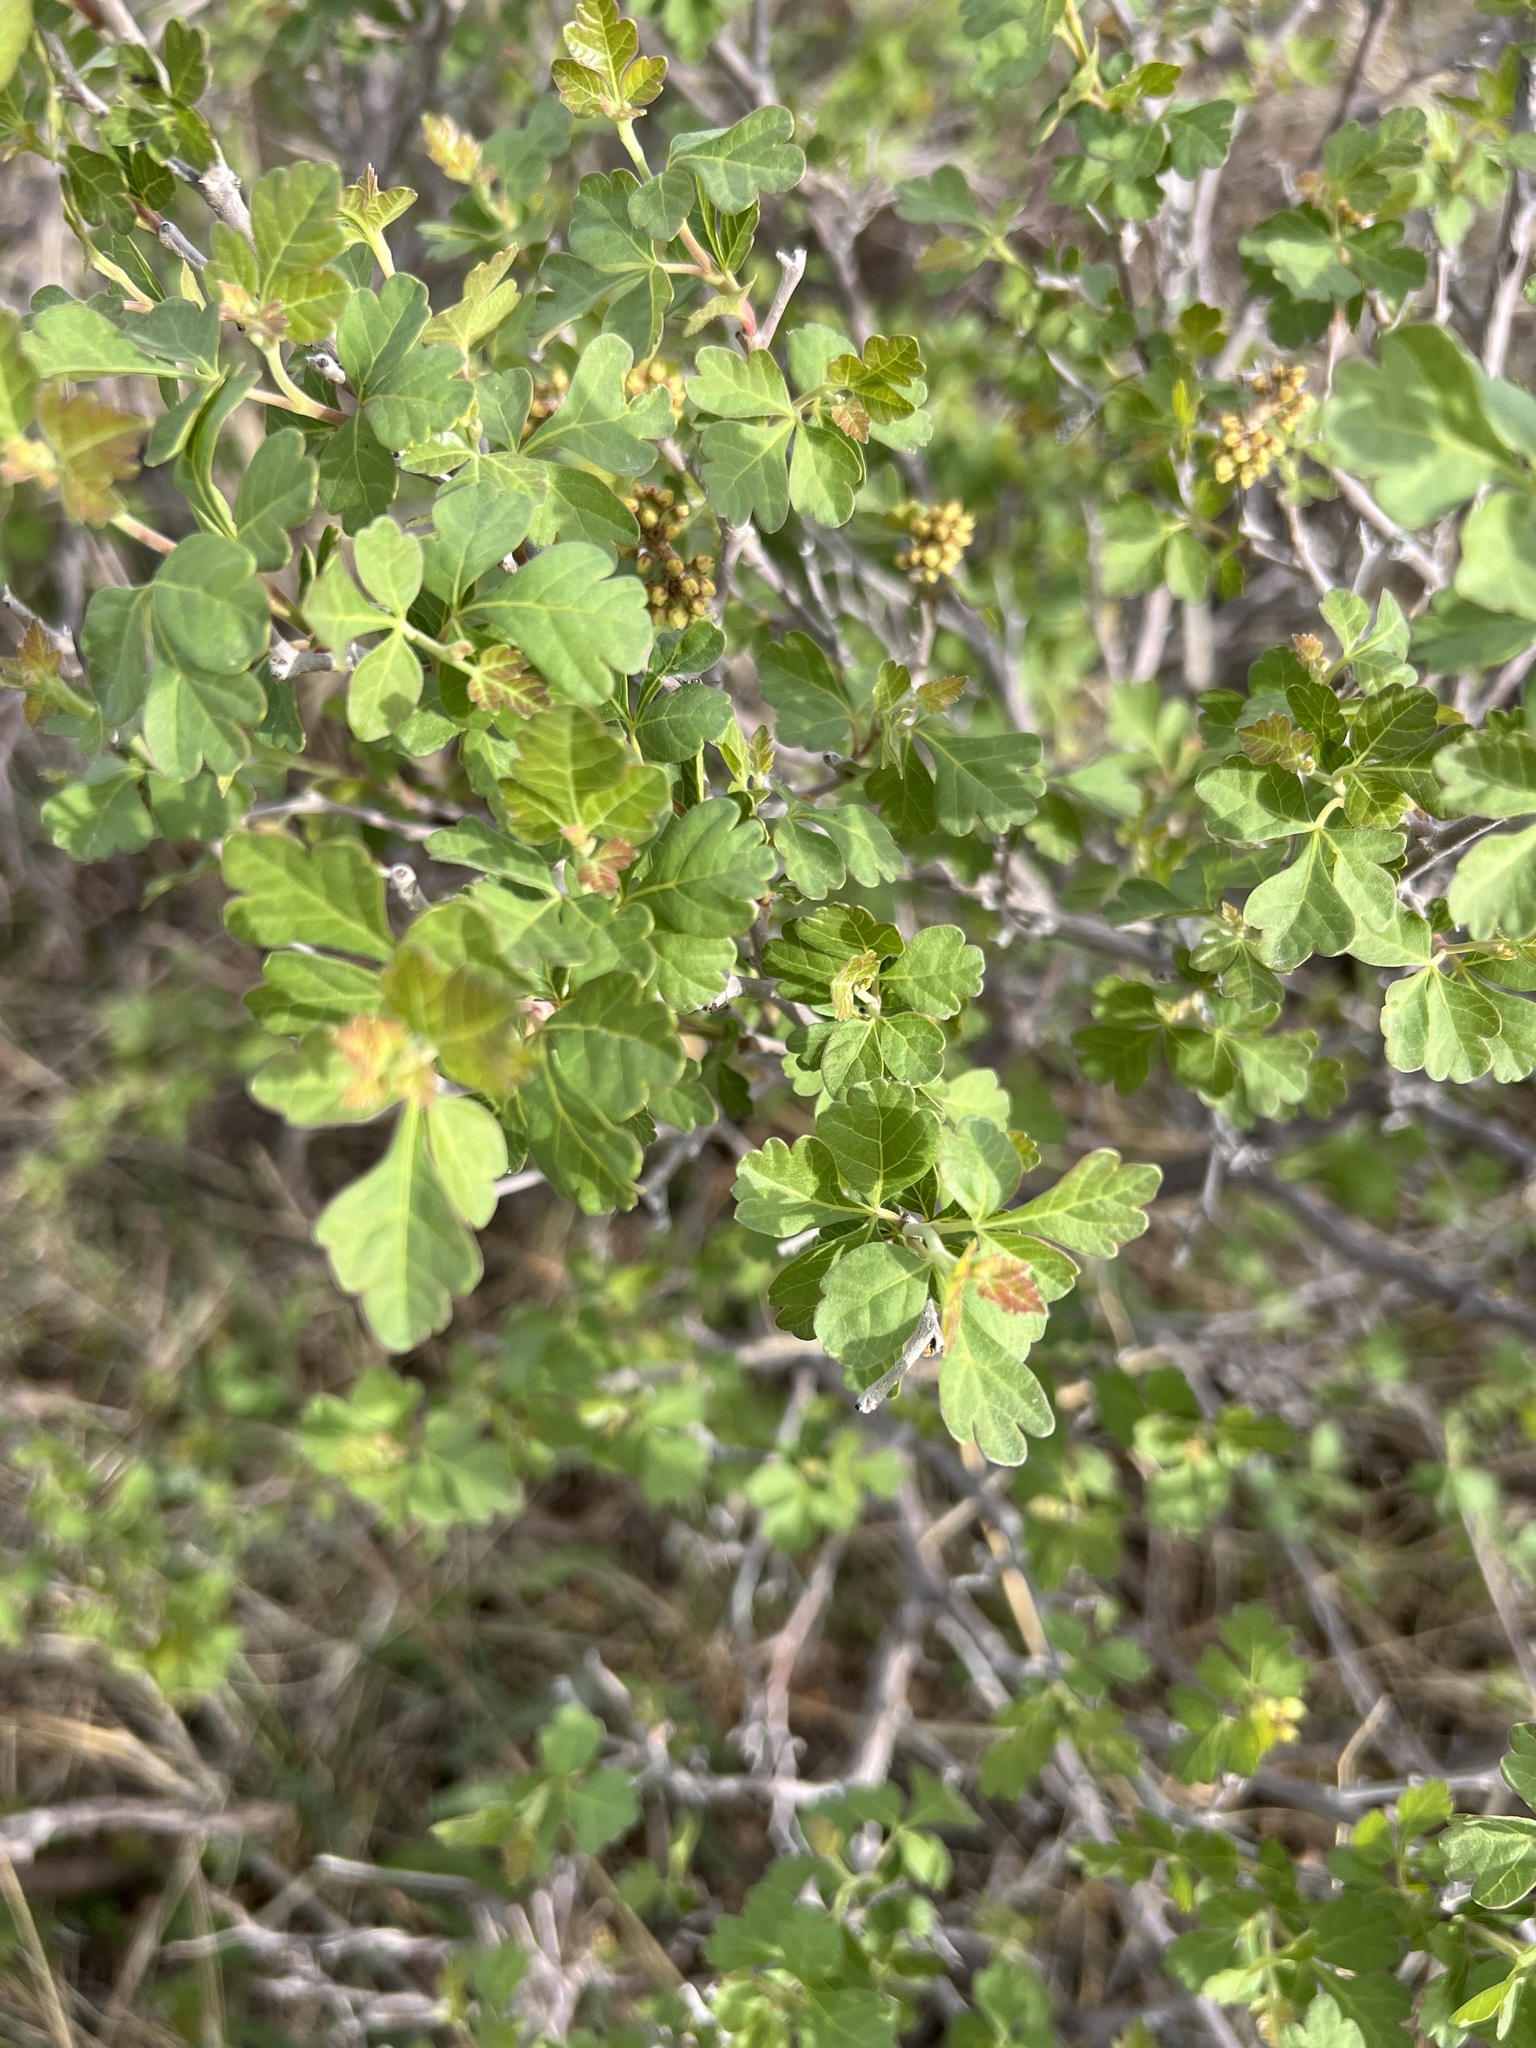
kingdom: Plantae
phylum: Tracheophyta
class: Magnoliopsida
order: Sapindales
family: Anacardiaceae
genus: Rhus
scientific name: Rhus trilobata
